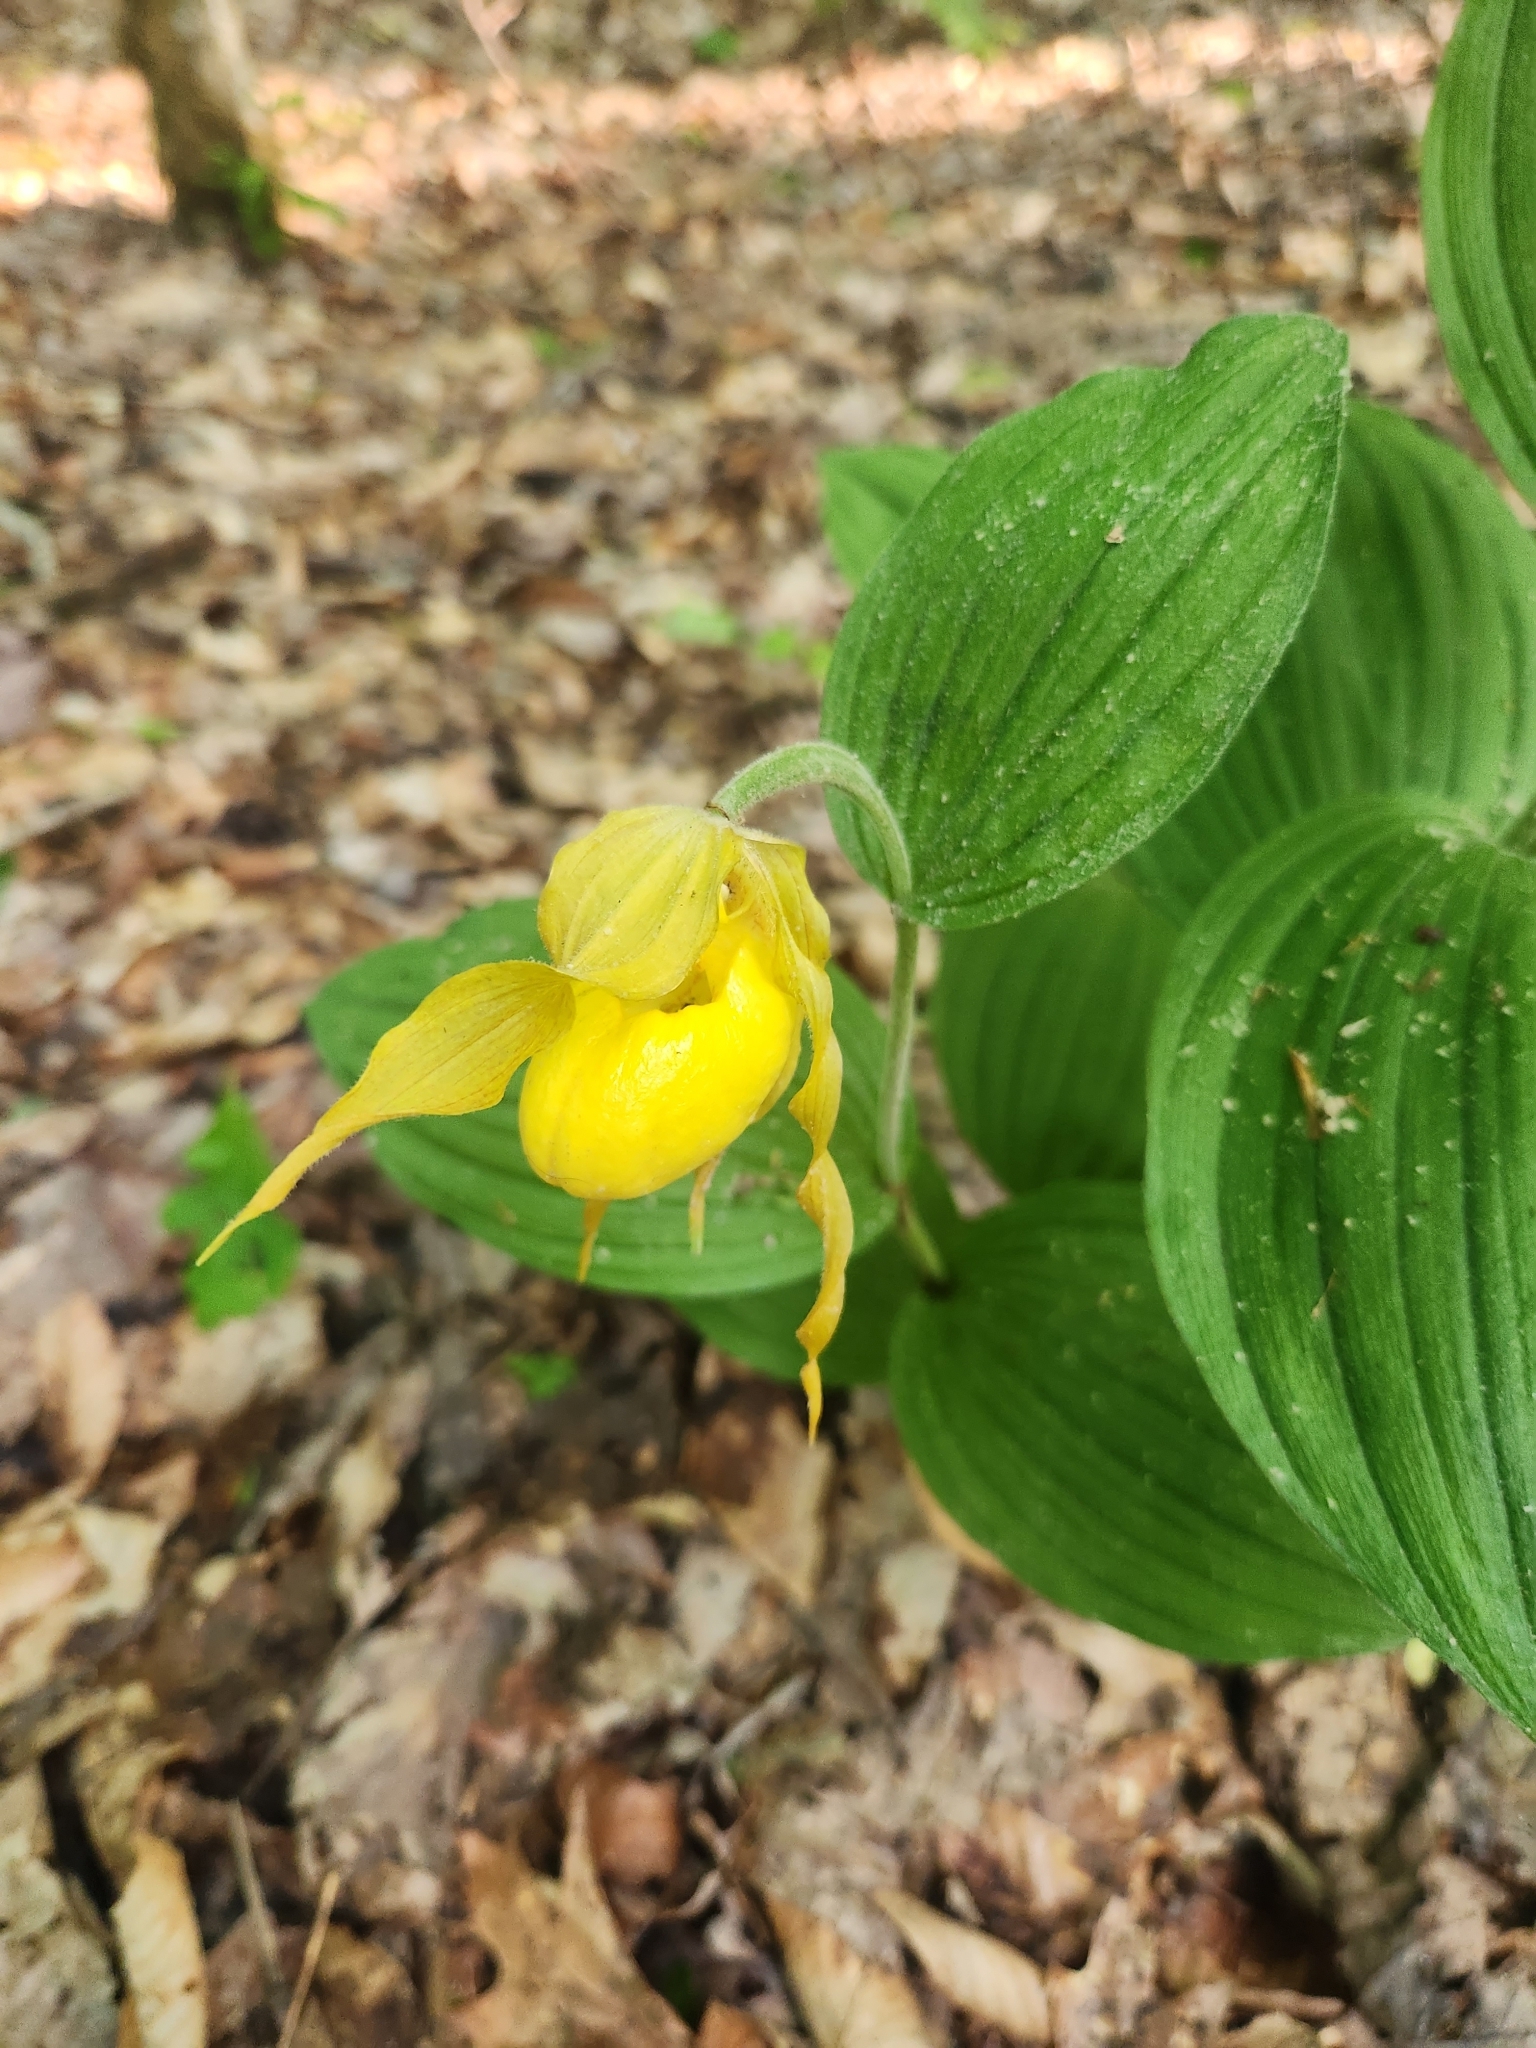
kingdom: Plantae
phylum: Tracheophyta
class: Liliopsida
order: Asparagales
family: Orchidaceae
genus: Cypripedium
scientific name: Cypripedium parviflorum
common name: American yellow lady's-slipper
